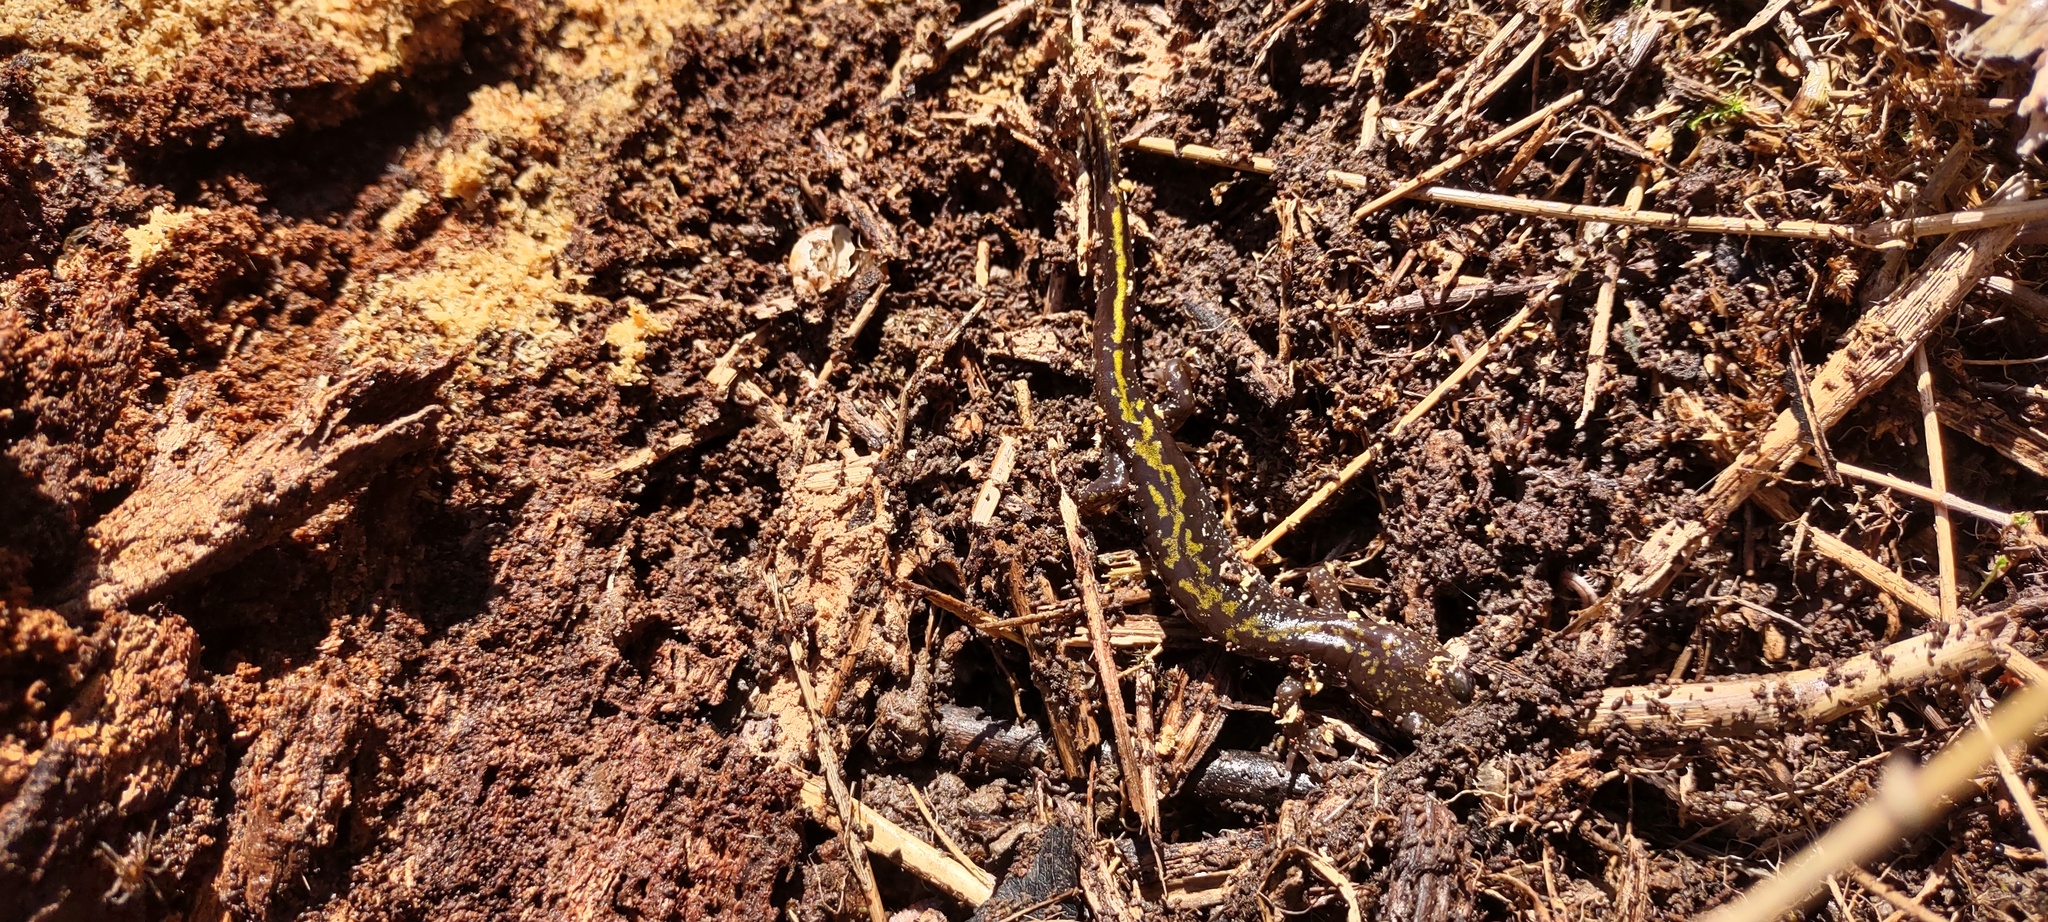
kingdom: Animalia
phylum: Chordata
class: Amphibia
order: Caudata
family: Ambystomatidae
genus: Ambystoma
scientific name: Ambystoma macrodactylum
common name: Long-toed salamander
